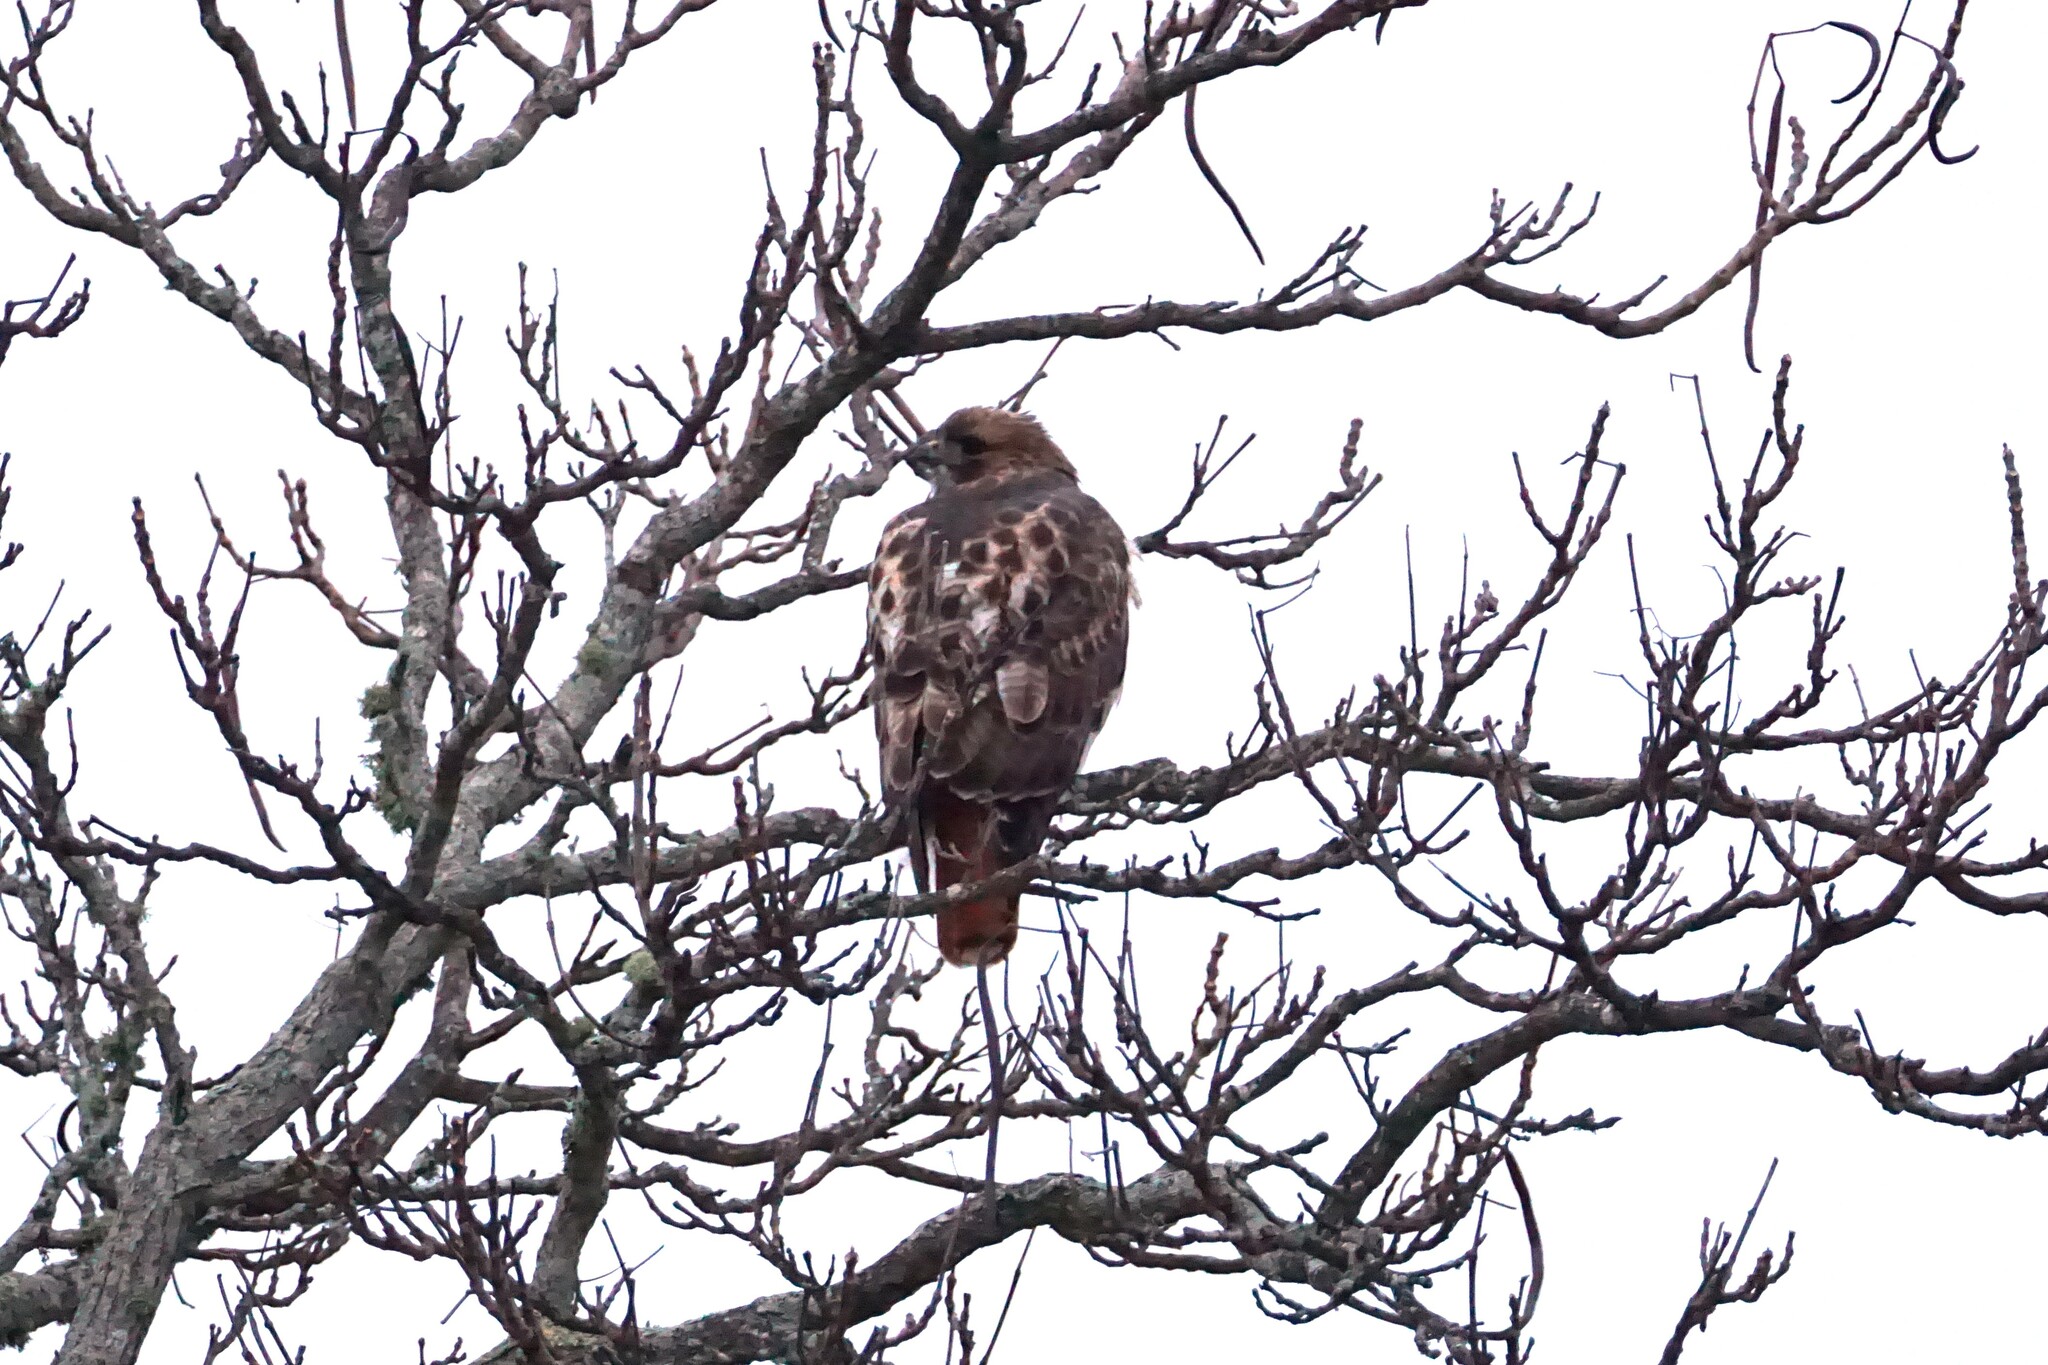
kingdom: Animalia
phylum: Chordata
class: Aves
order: Accipitriformes
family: Accipitridae
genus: Buteo
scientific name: Buteo jamaicensis
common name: Red-tailed hawk
